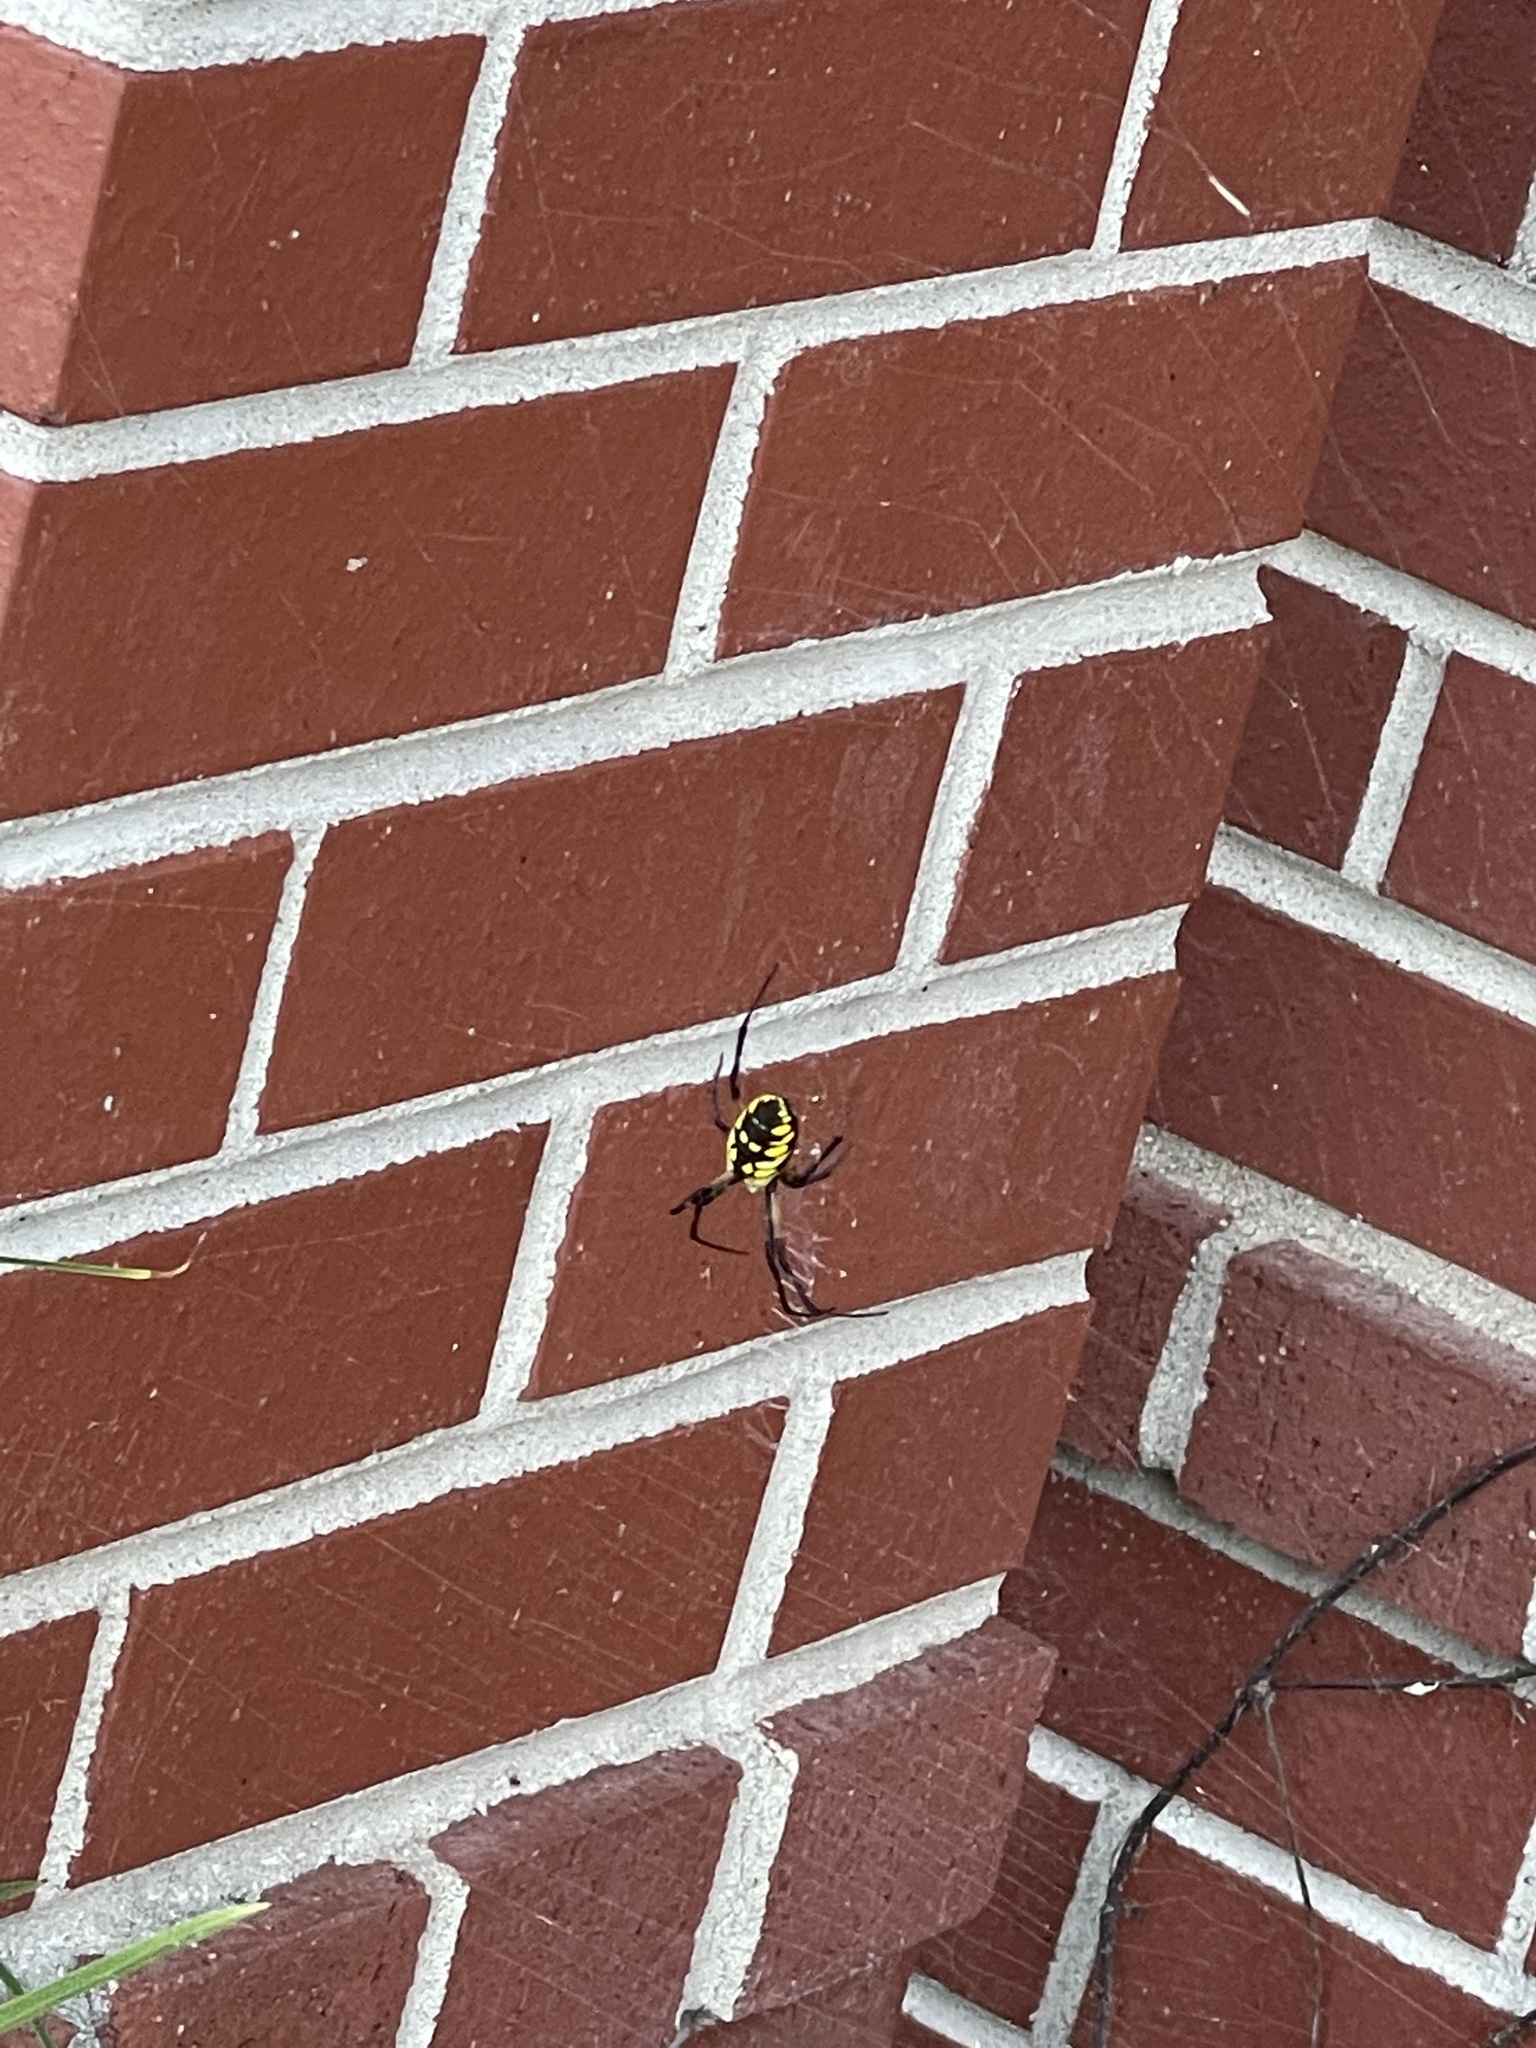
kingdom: Animalia
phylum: Arthropoda
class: Arachnida
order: Araneae
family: Araneidae
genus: Argiope
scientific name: Argiope aurantia
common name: Orb weavers
